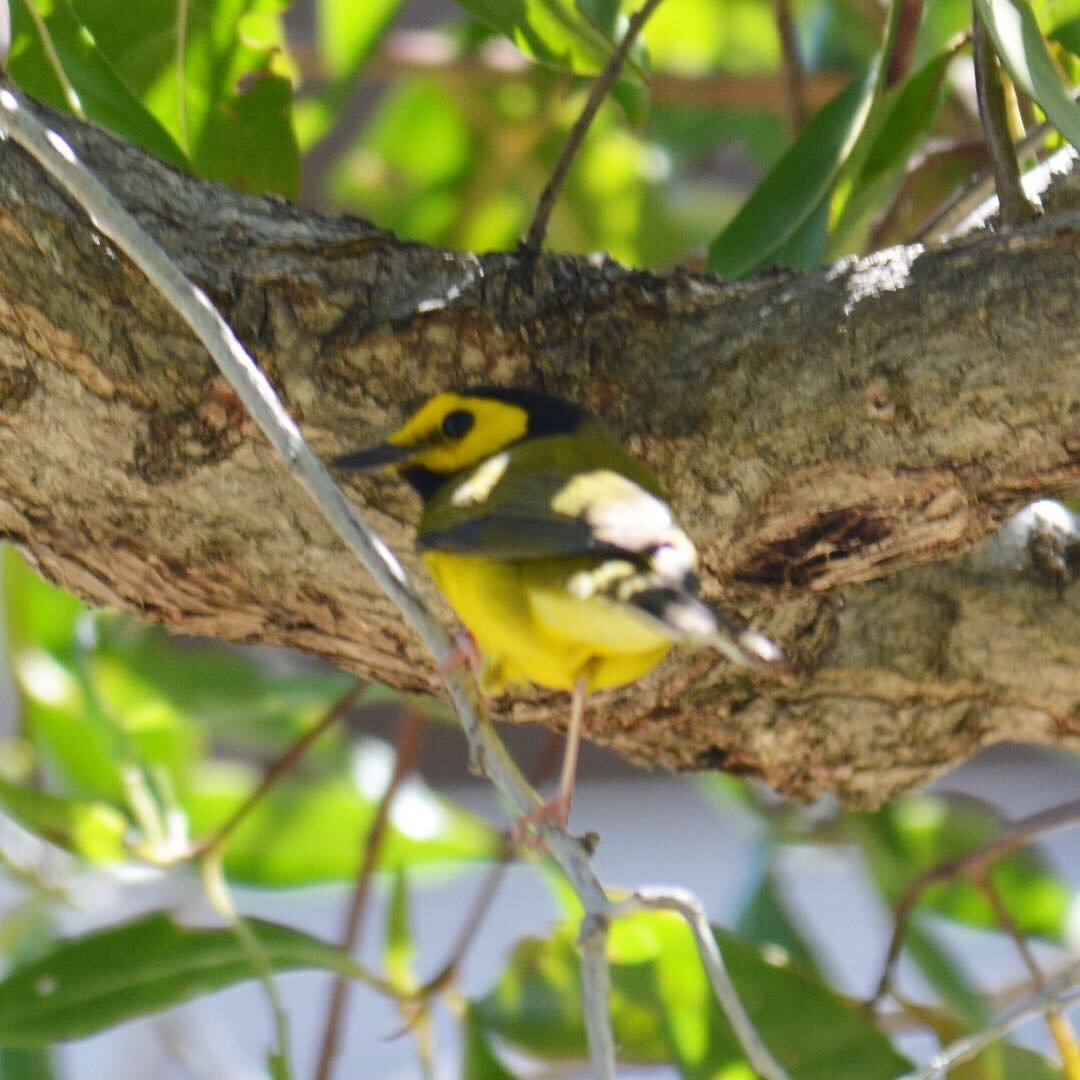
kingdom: Animalia
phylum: Chordata
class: Aves
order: Passeriformes
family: Parulidae
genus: Setophaga
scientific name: Setophaga citrina
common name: Hooded warbler
